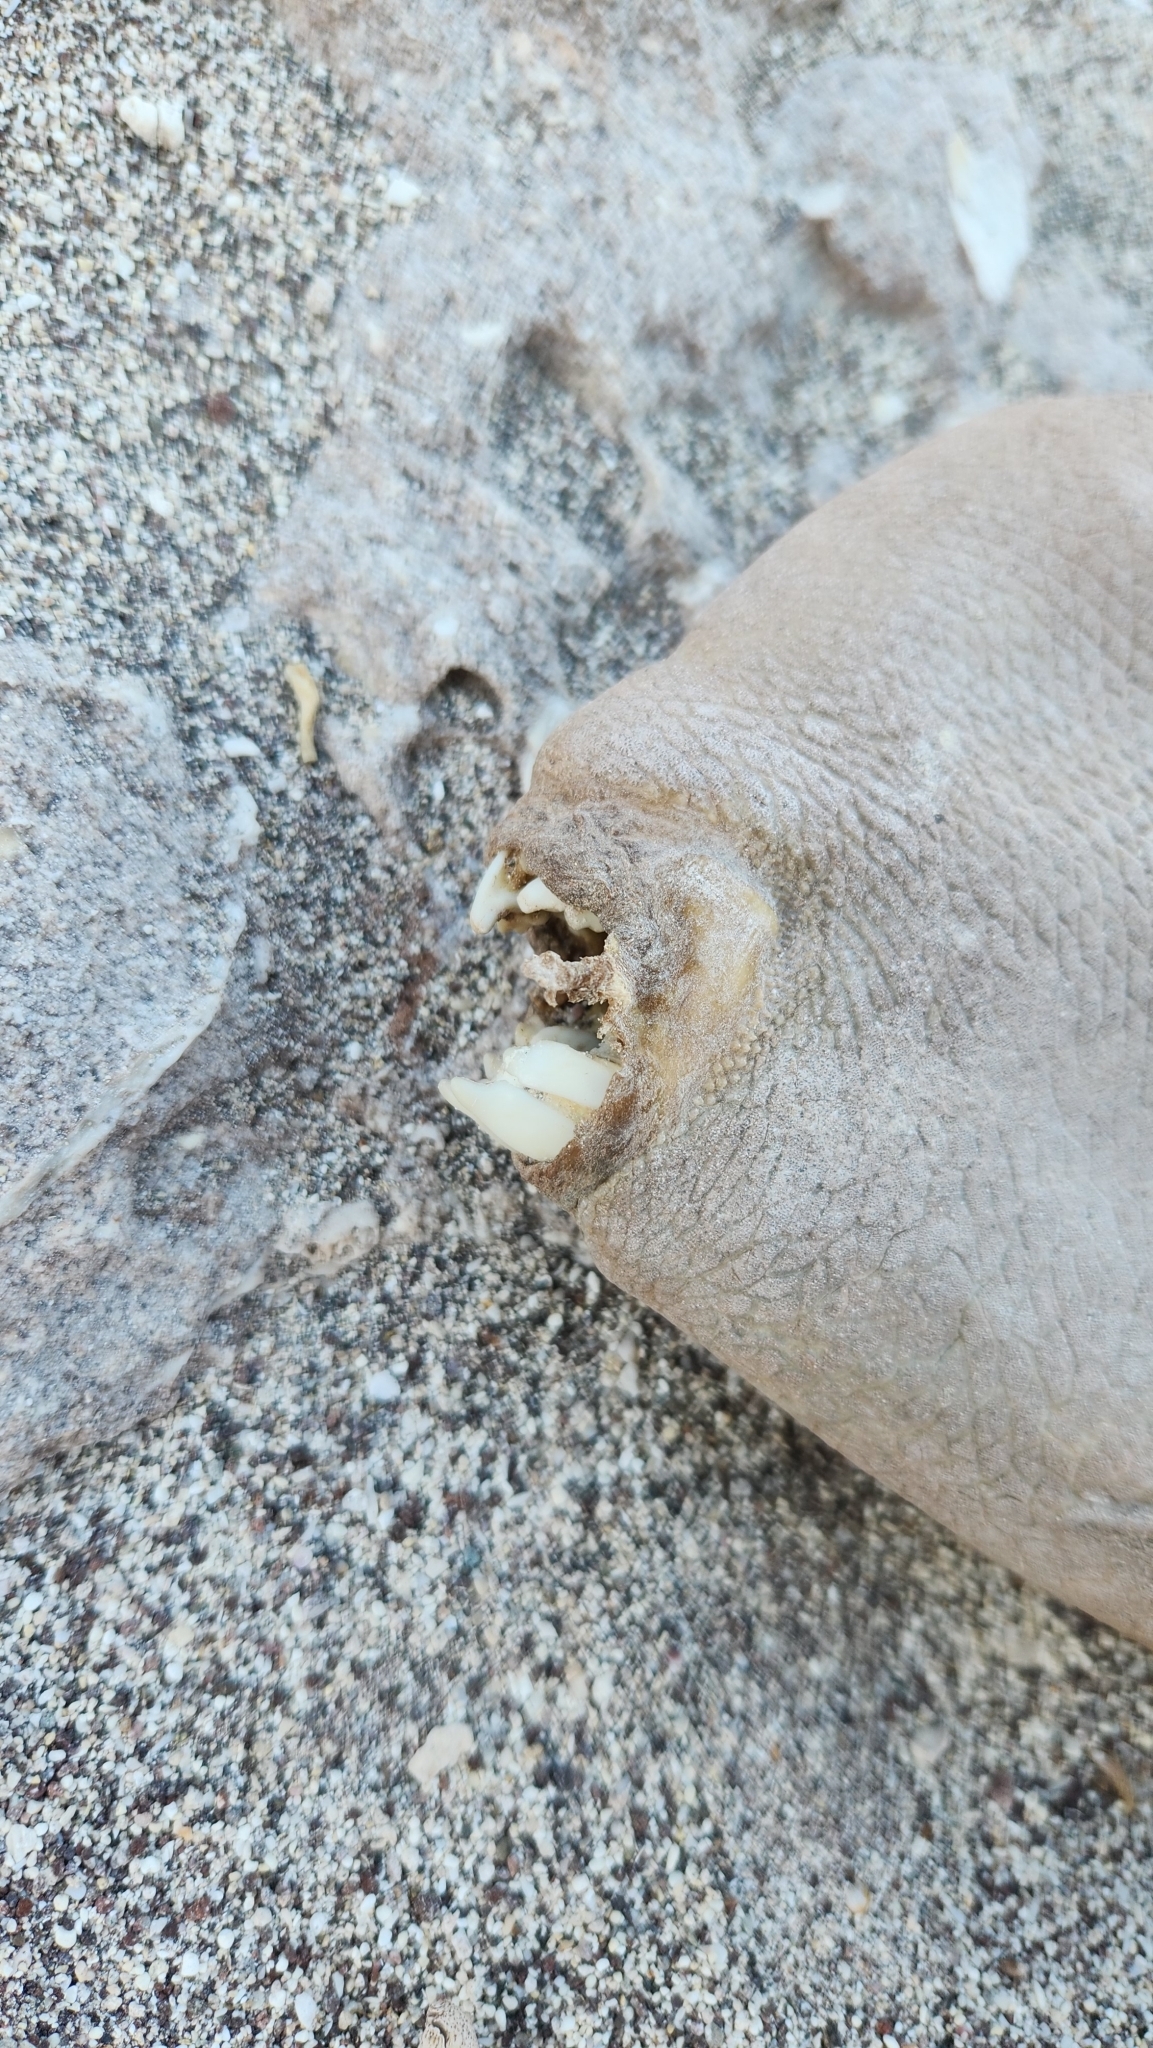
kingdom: Animalia
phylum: Chordata
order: Tetraodontiformes
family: Balistidae
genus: Balistes
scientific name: Balistes polylepis
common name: Finescale triggerfish
